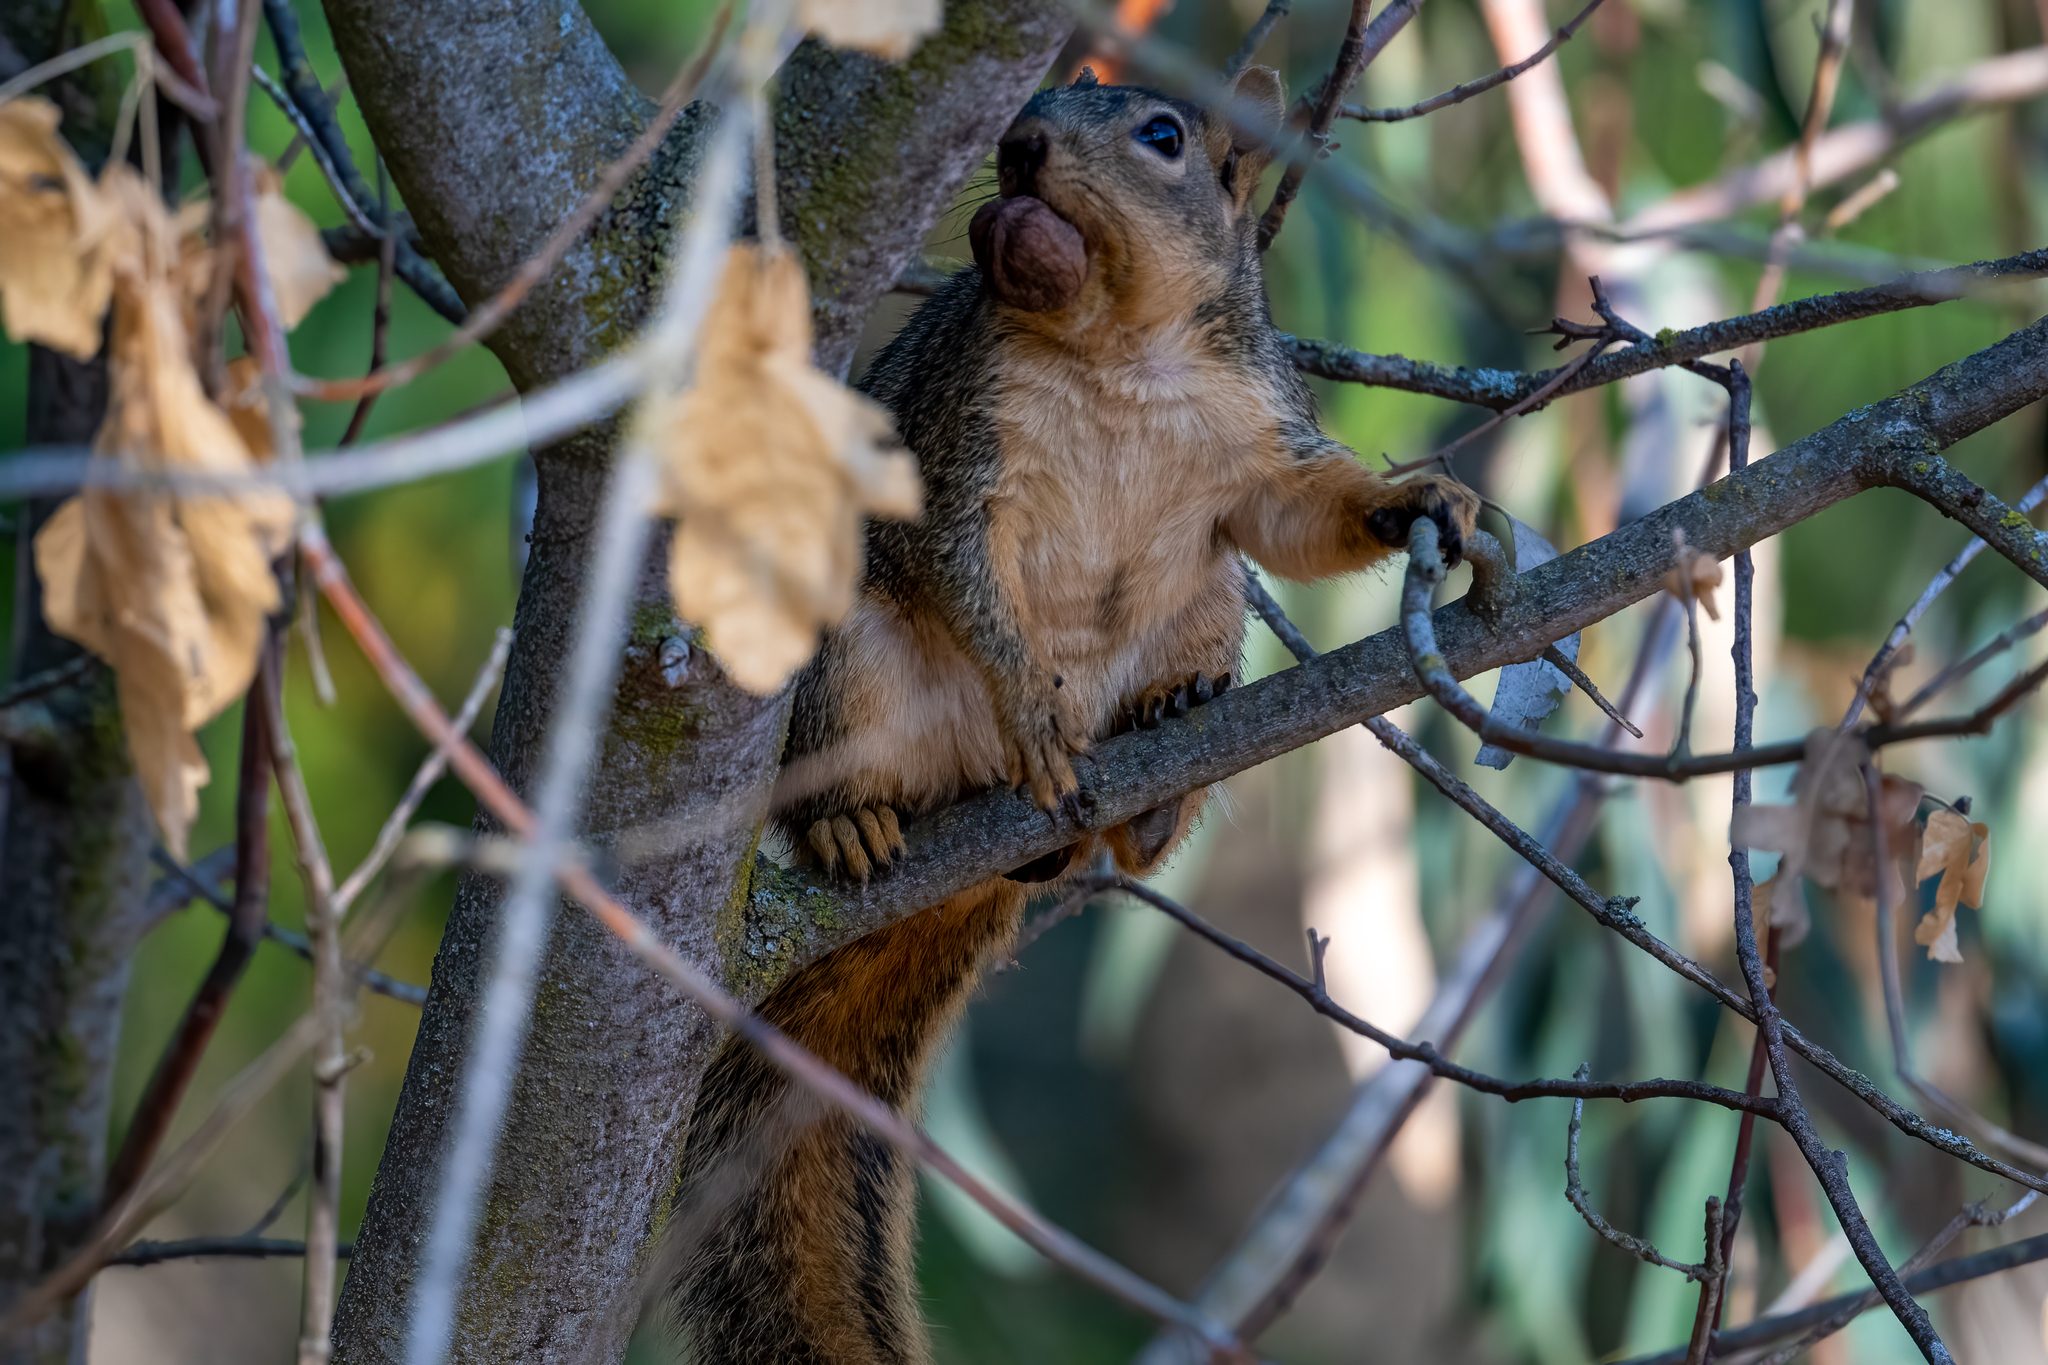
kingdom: Animalia
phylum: Chordata
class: Mammalia
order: Rodentia
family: Sciuridae
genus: Sciurus
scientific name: Sciurus niger
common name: Fox squirrel
